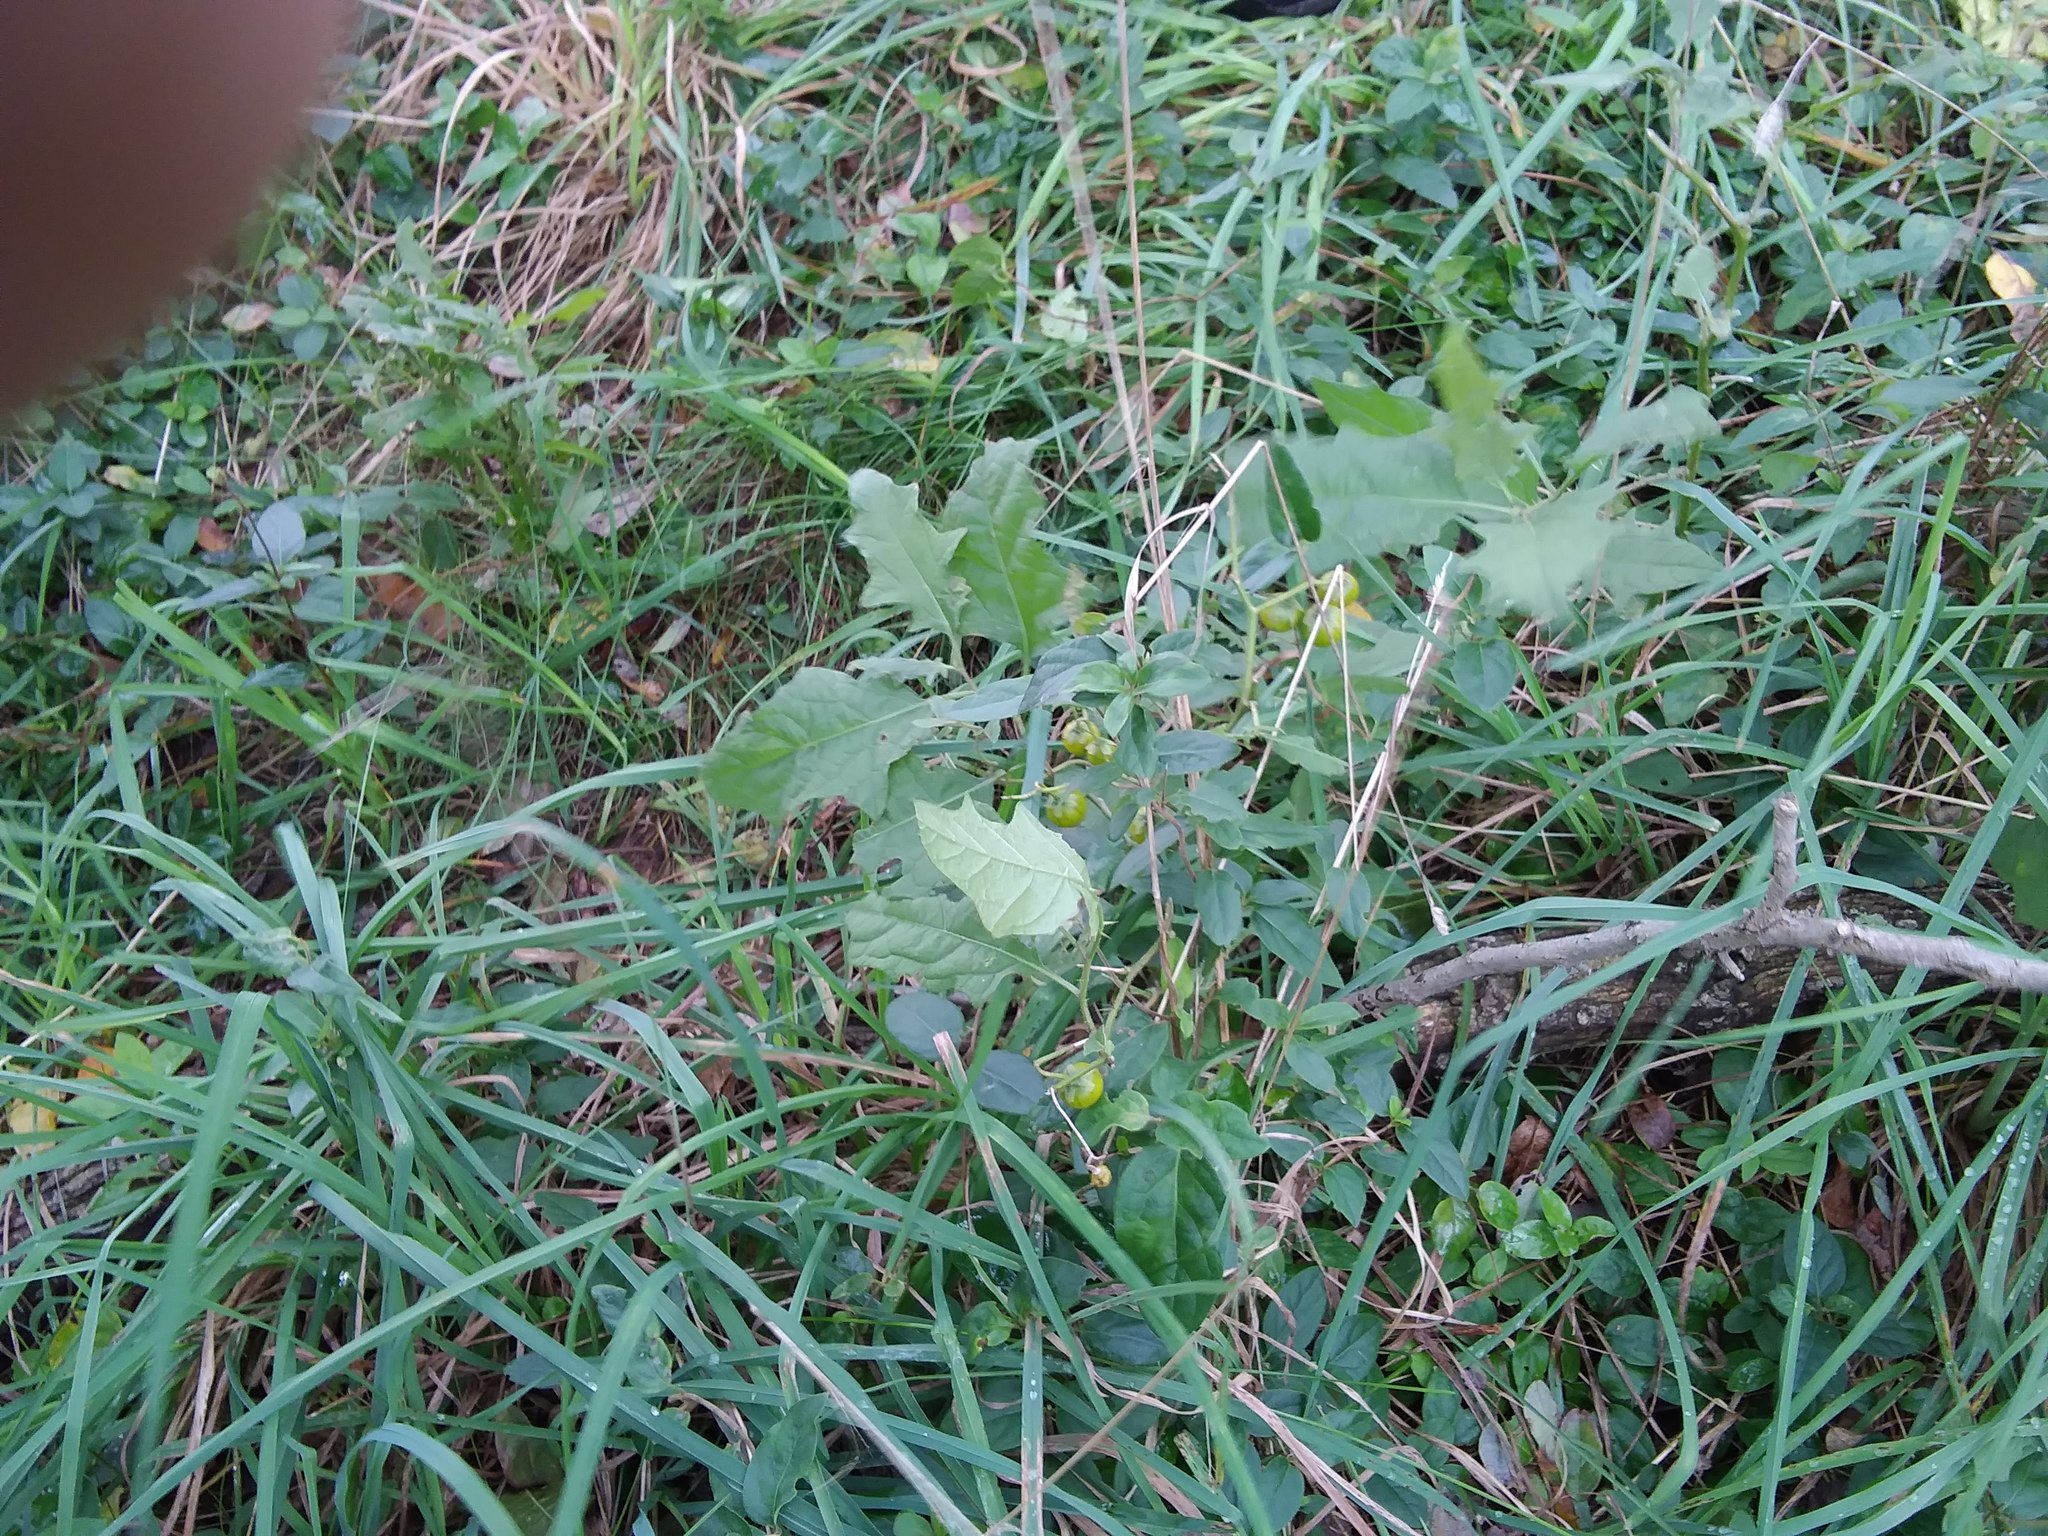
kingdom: Plantae
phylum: Tracheophyta
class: Magnoliopsida
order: Solanales
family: Solanaceae
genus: Solanum
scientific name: Solanum carolinense
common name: Horse-nettle
